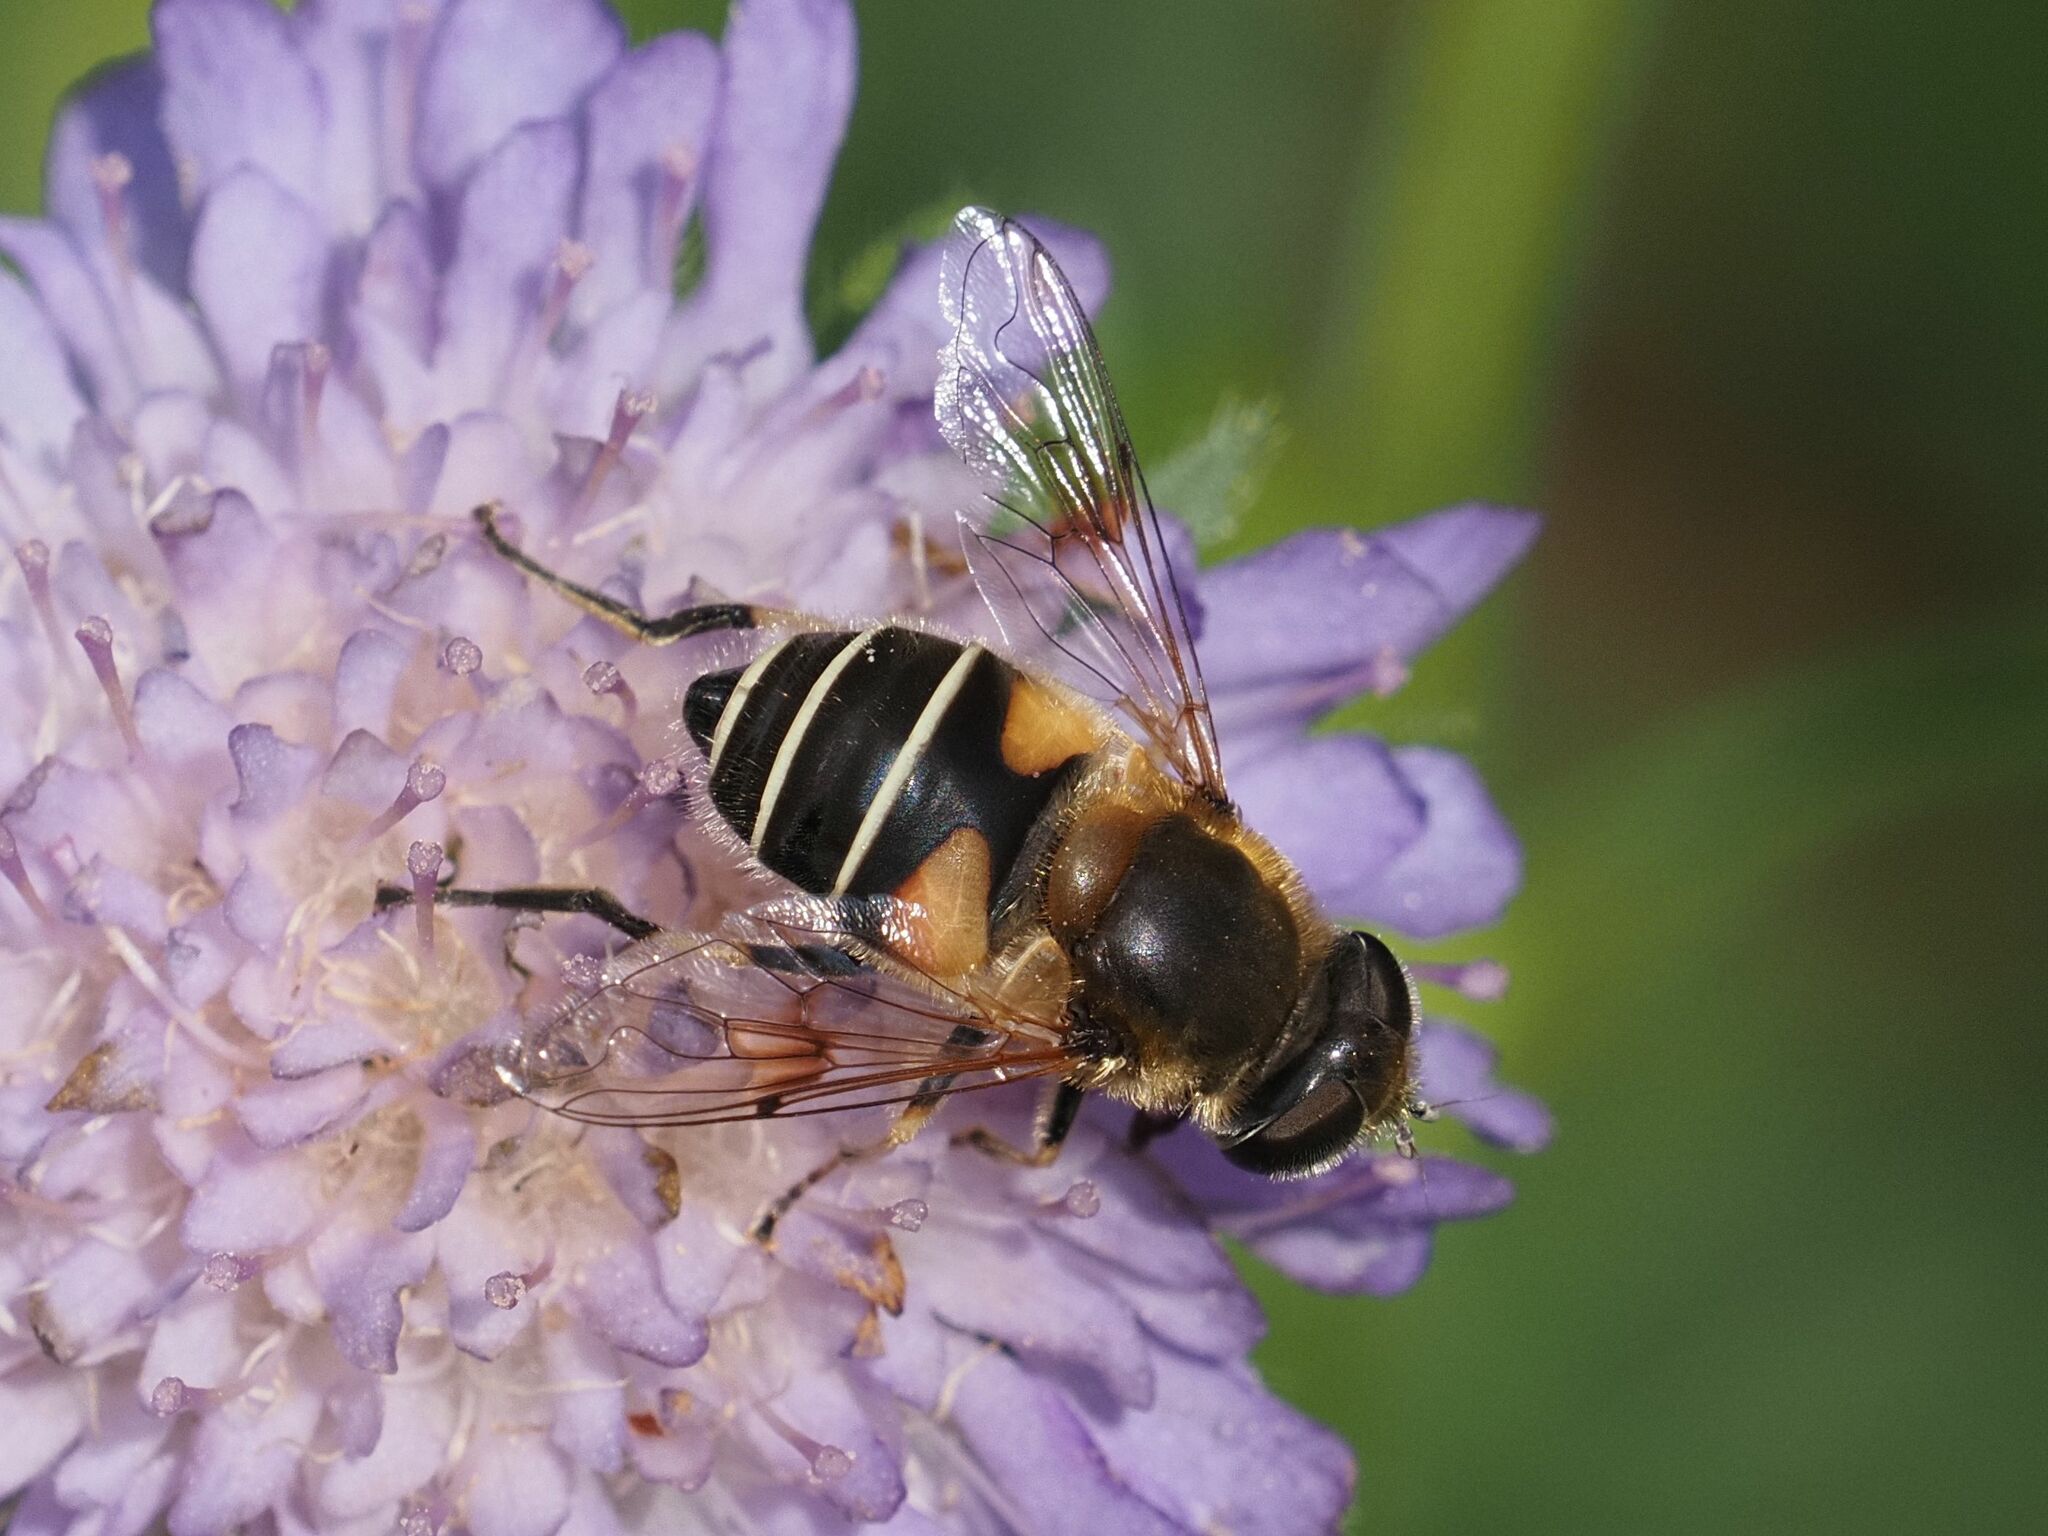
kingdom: Animalia
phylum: Arthropoda
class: Insecta
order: Diptera
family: Syrphidae
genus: Eristalis
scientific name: Eristalis jugorum
